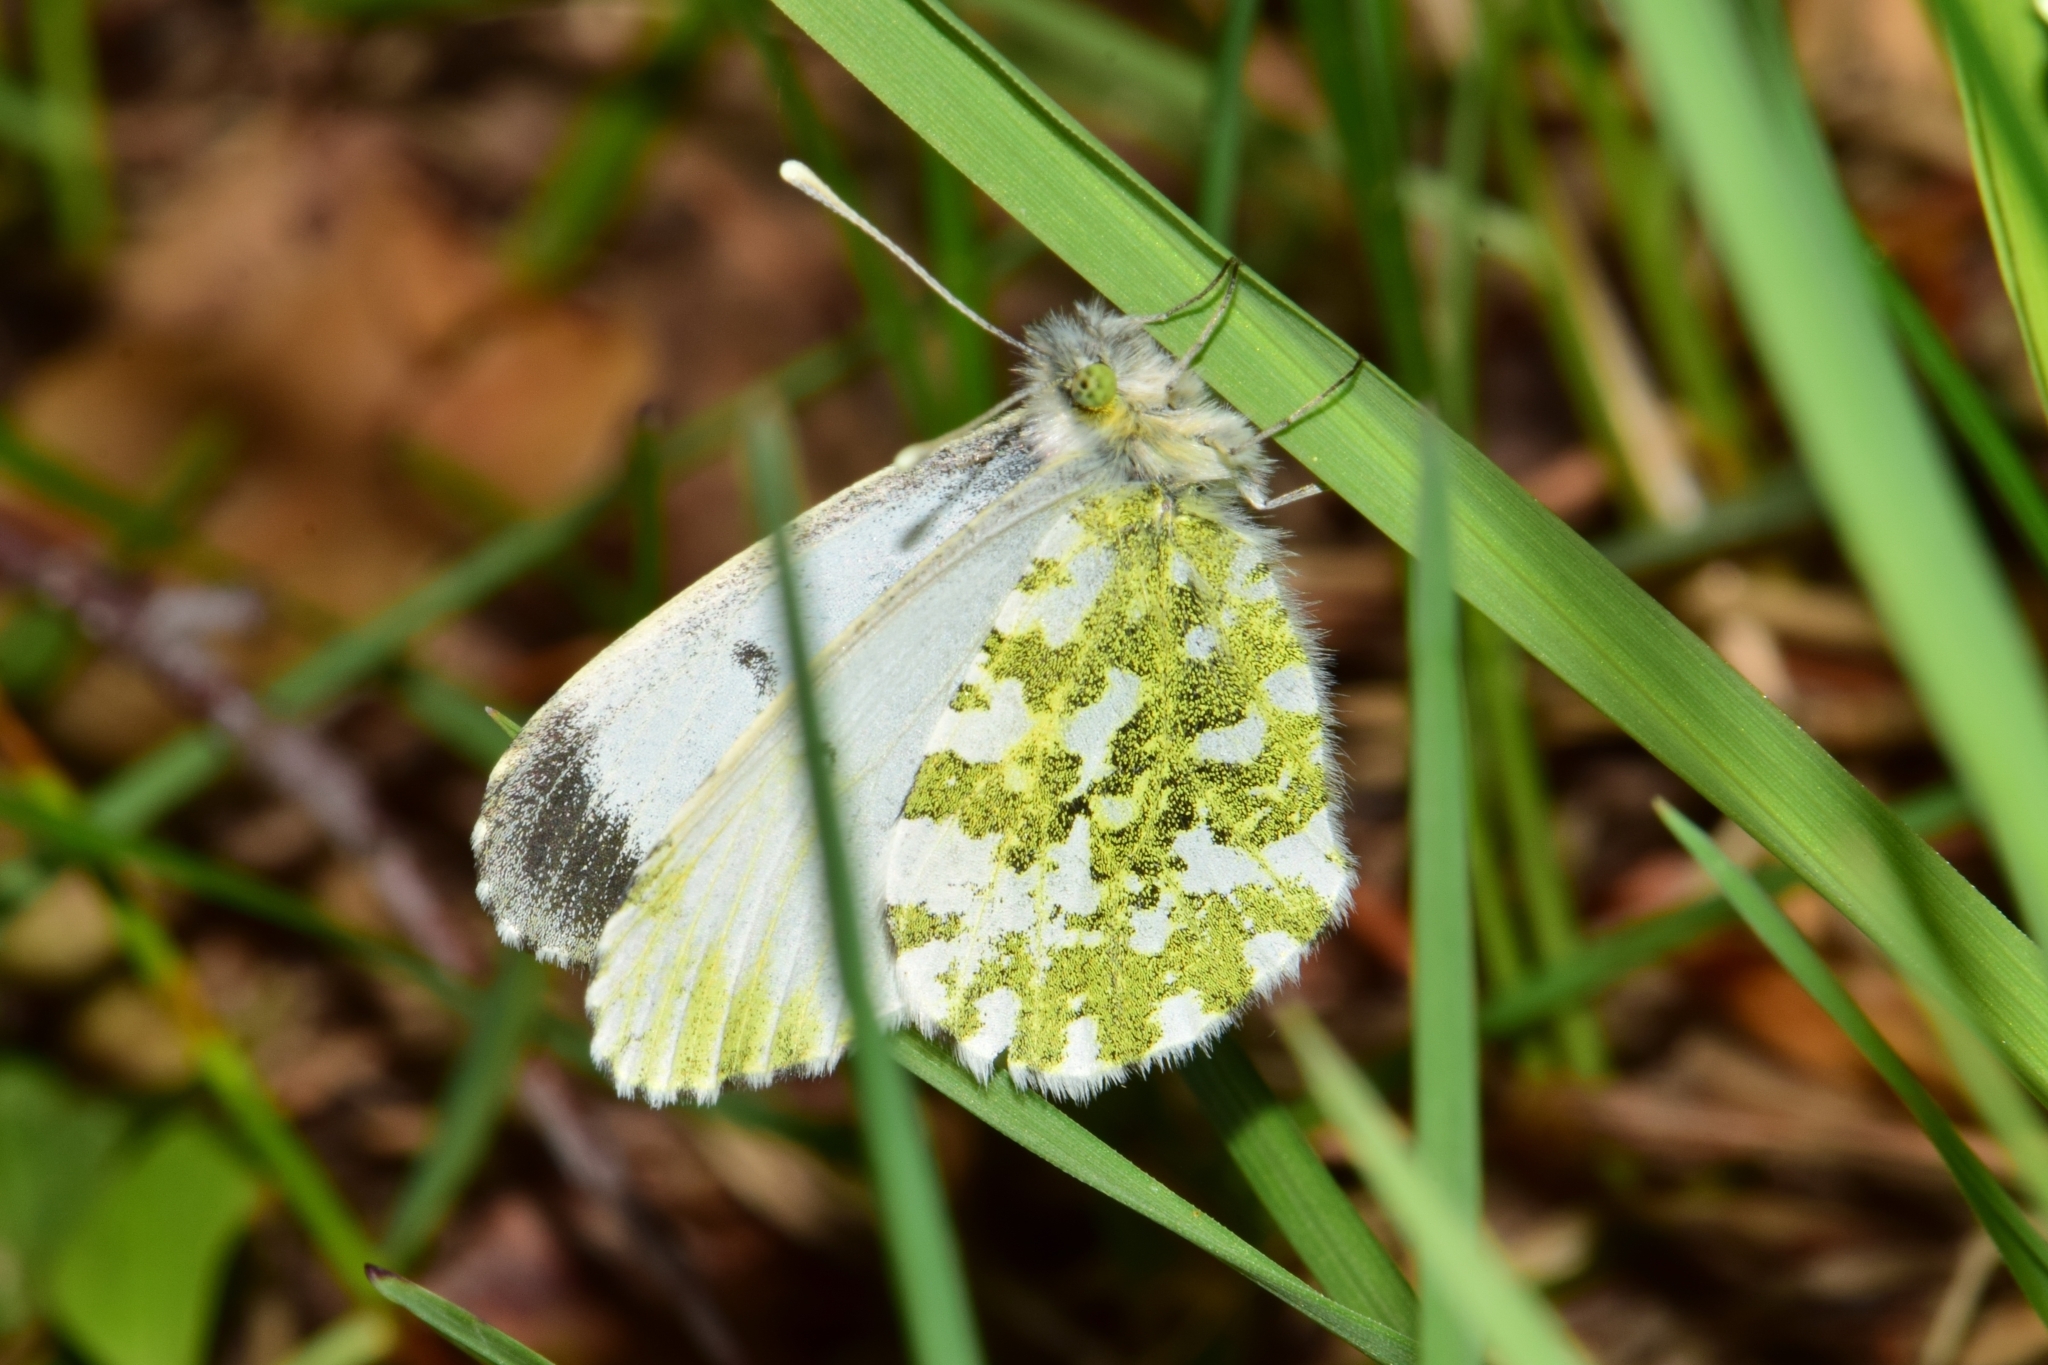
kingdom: Animalia
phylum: Arthropoda
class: Insecta
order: Lepidoptera
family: Pieridae
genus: Anthocharis
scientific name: Anthocharis cardamines
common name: Orange-tip
